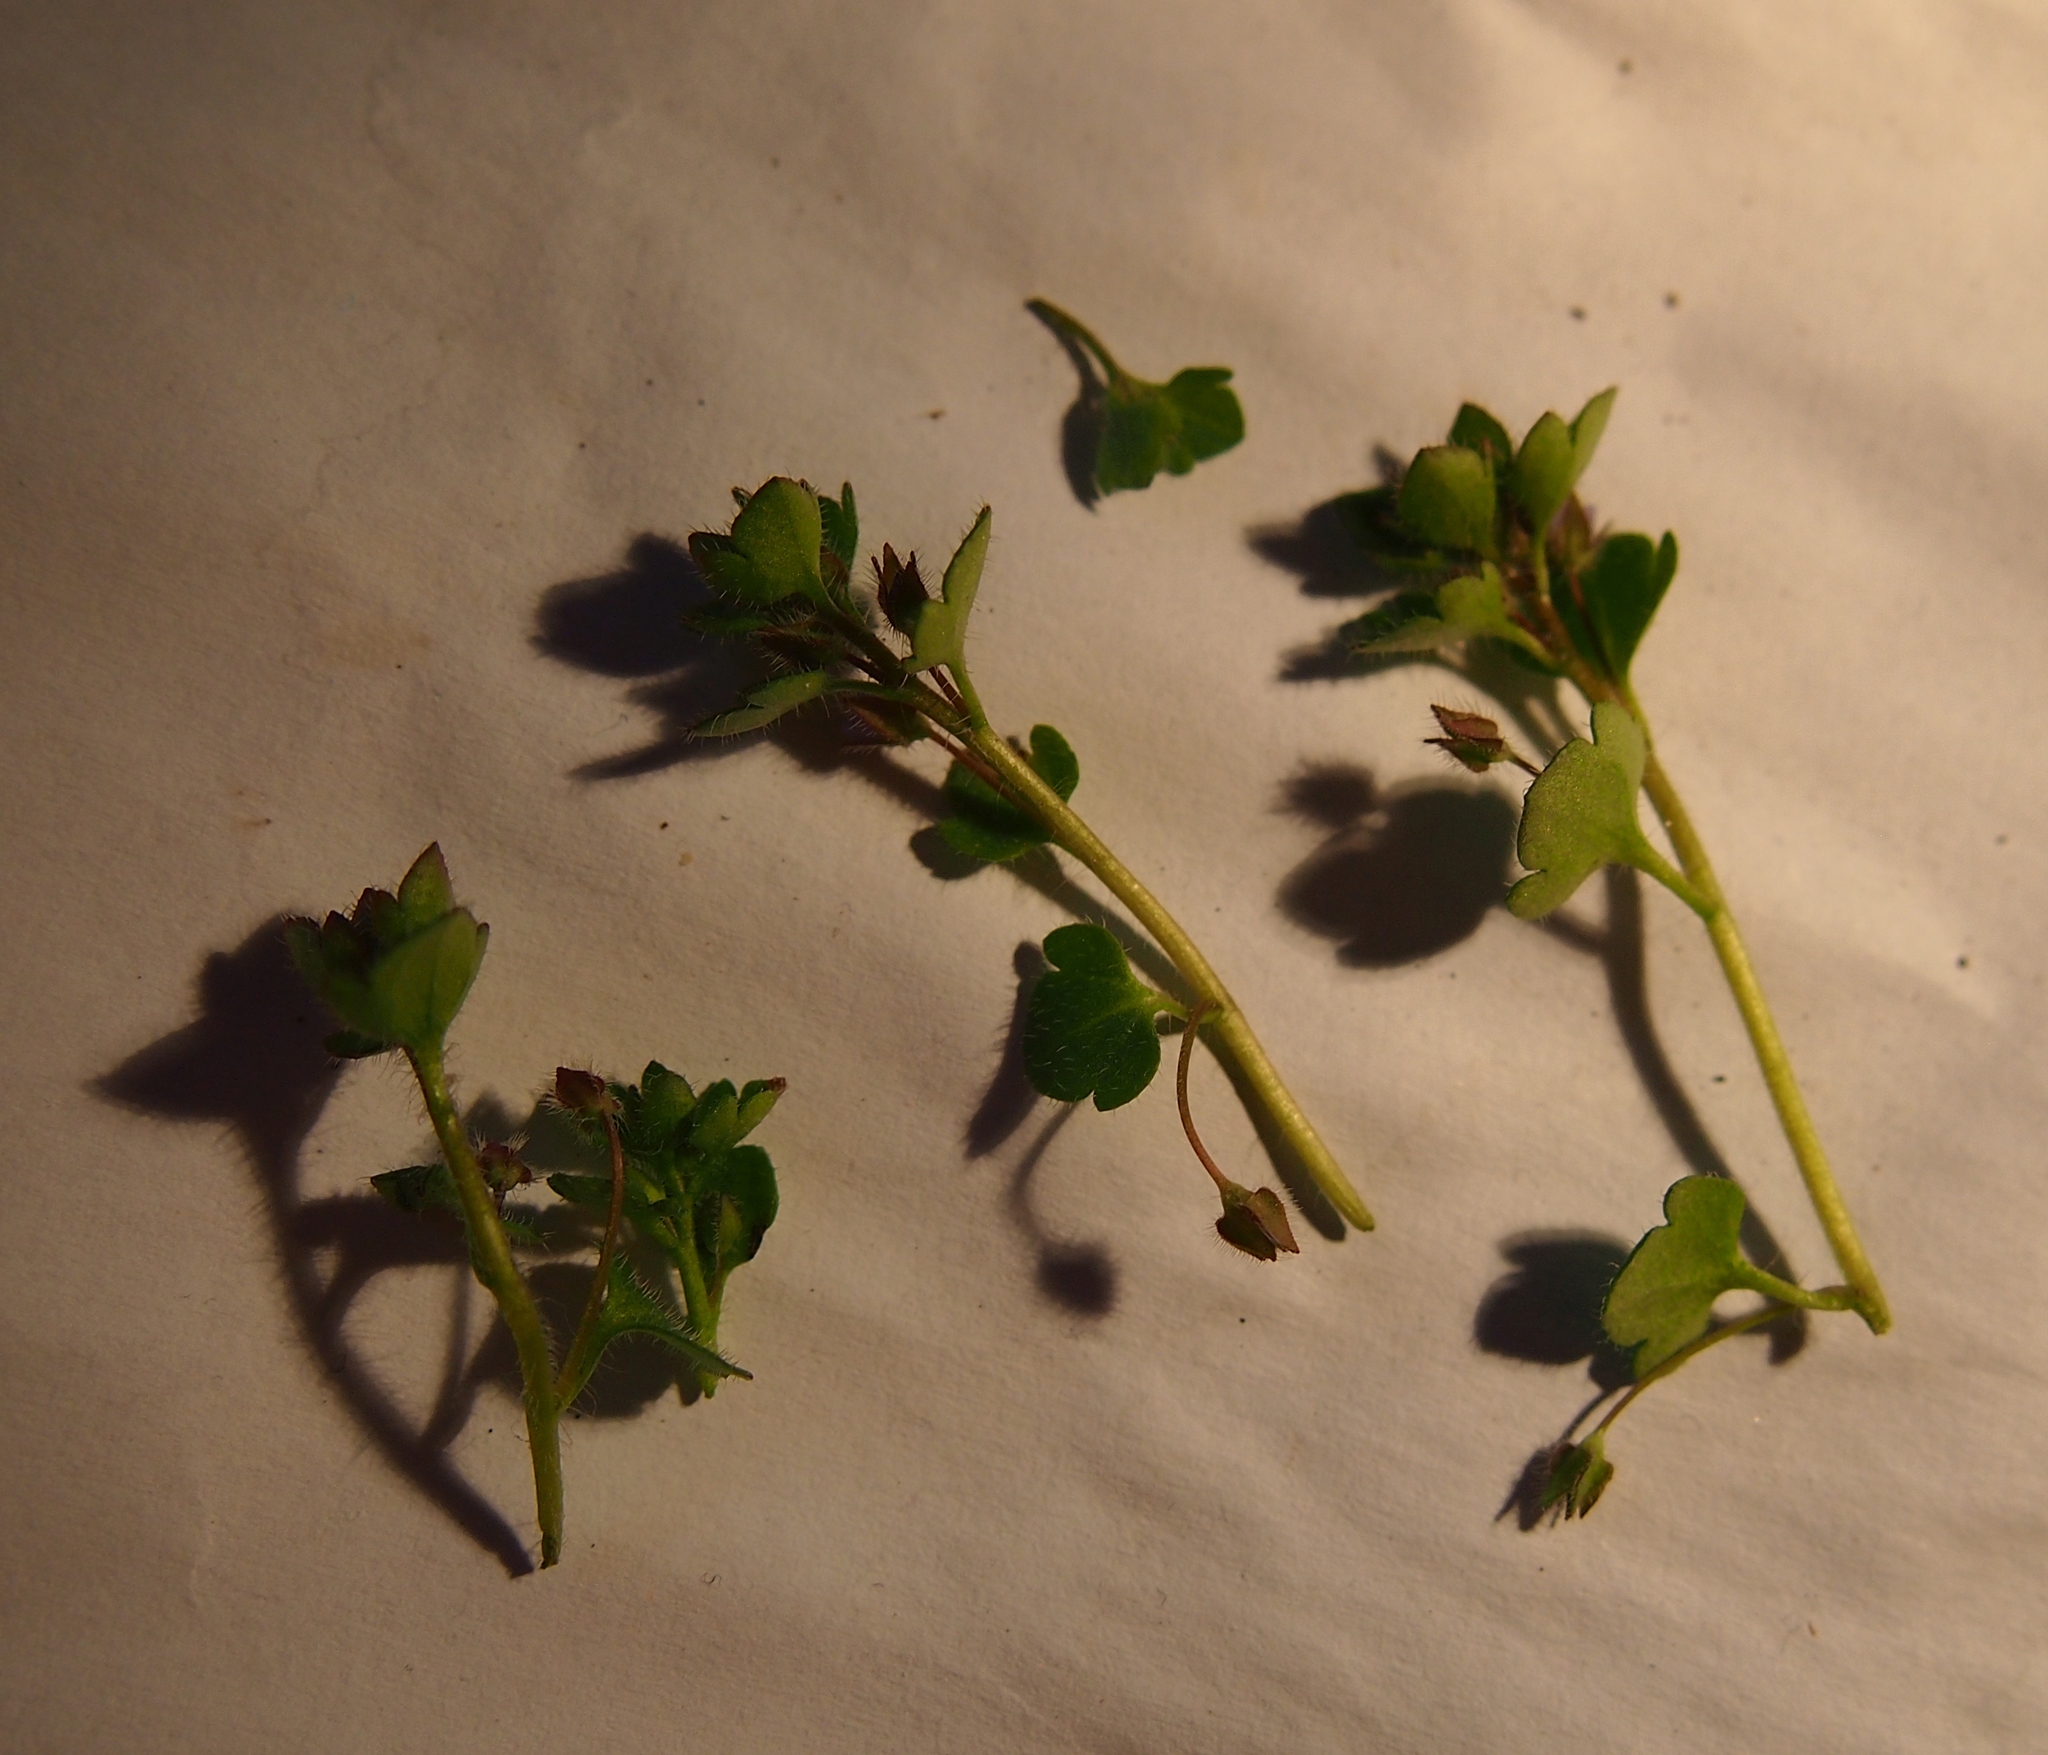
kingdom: Plantae
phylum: Tracheophyta
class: Magnoliopsida
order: Lamiales
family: Plantaginaceae
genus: Veronica
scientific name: Veronica hederifolia
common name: Ivy-leaved speedwell
